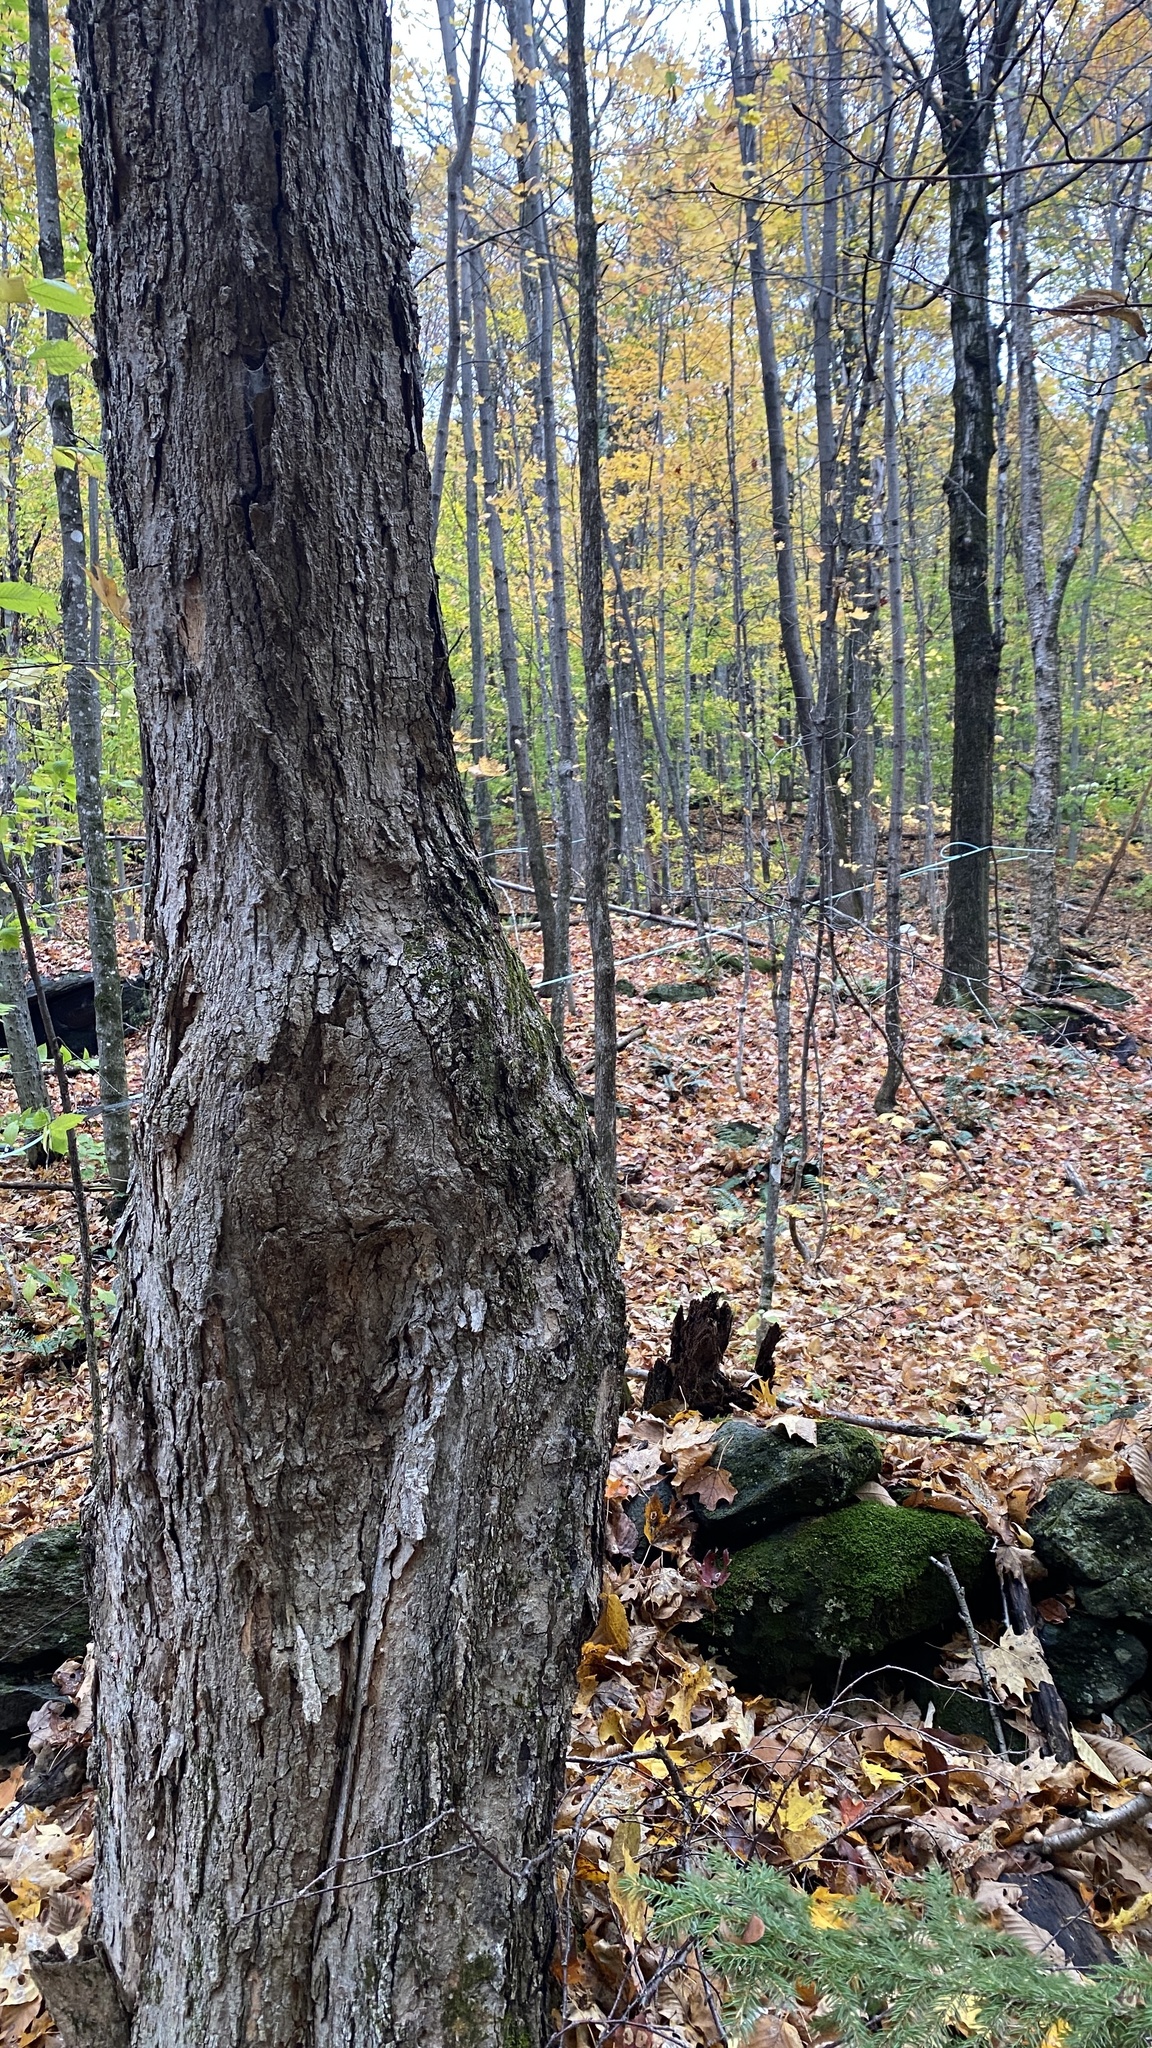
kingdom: Plantae
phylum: Tracheophyta
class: Magnoliopsida
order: Sapindales
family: Sapindaceae
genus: Acer
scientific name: Acer saccharum
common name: Sugar maple
